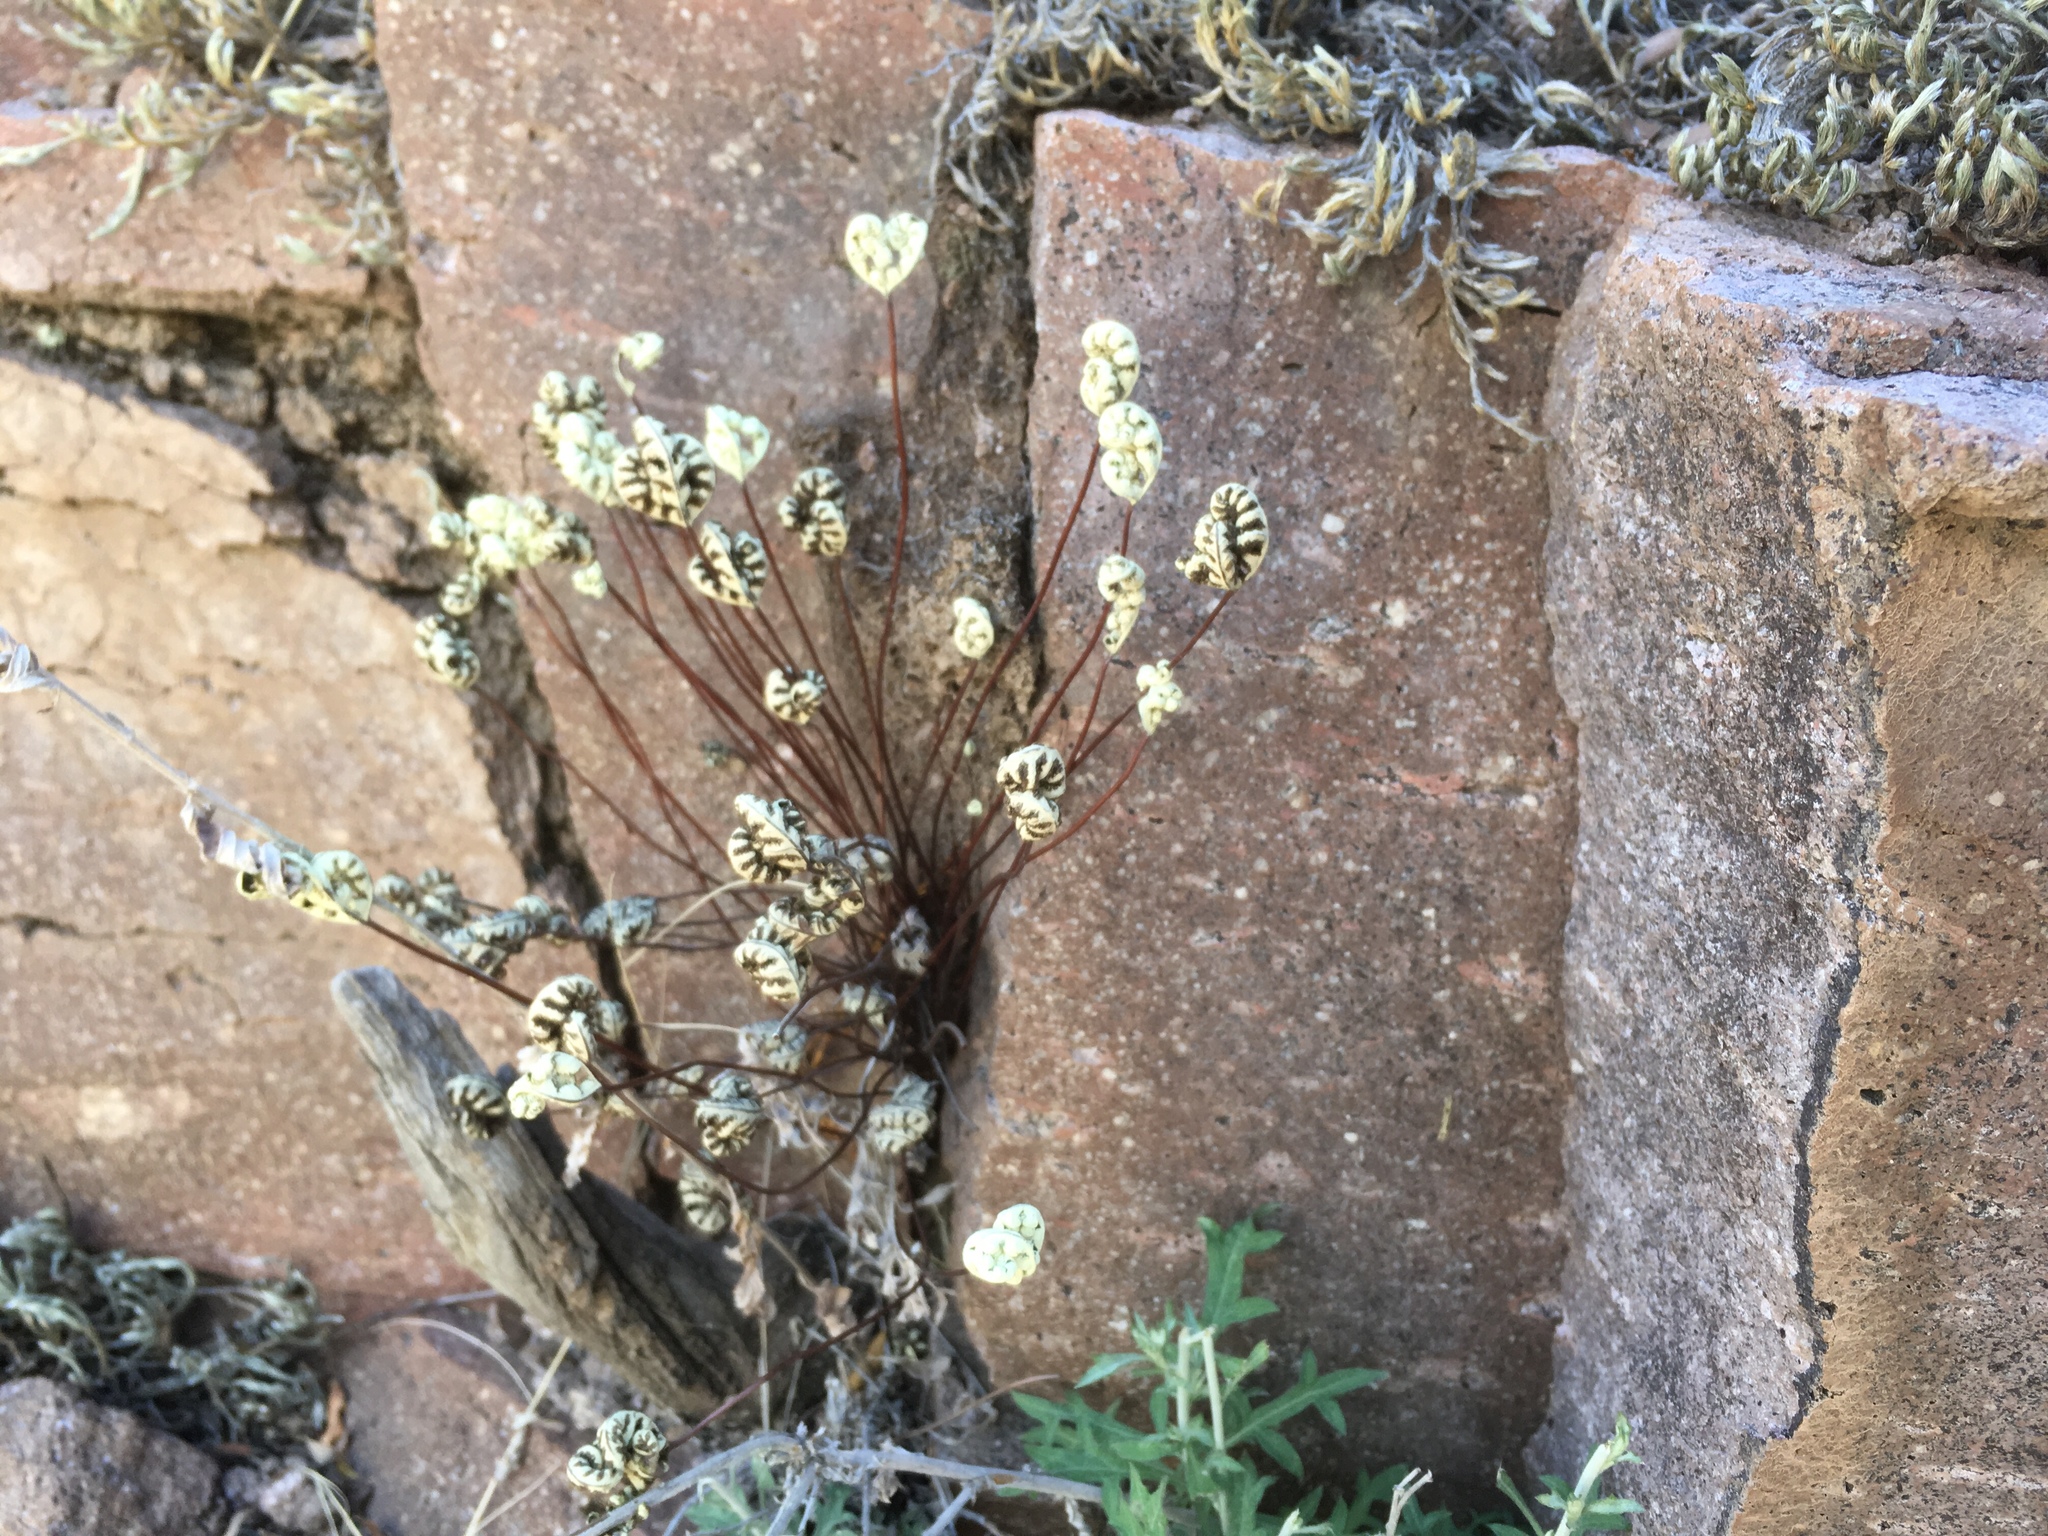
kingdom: Plantae
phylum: Tracheophyta
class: Polypodiopsida
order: Polypodiales
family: Pteridaceae
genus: Notholaena
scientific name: Notholaena standleyi
